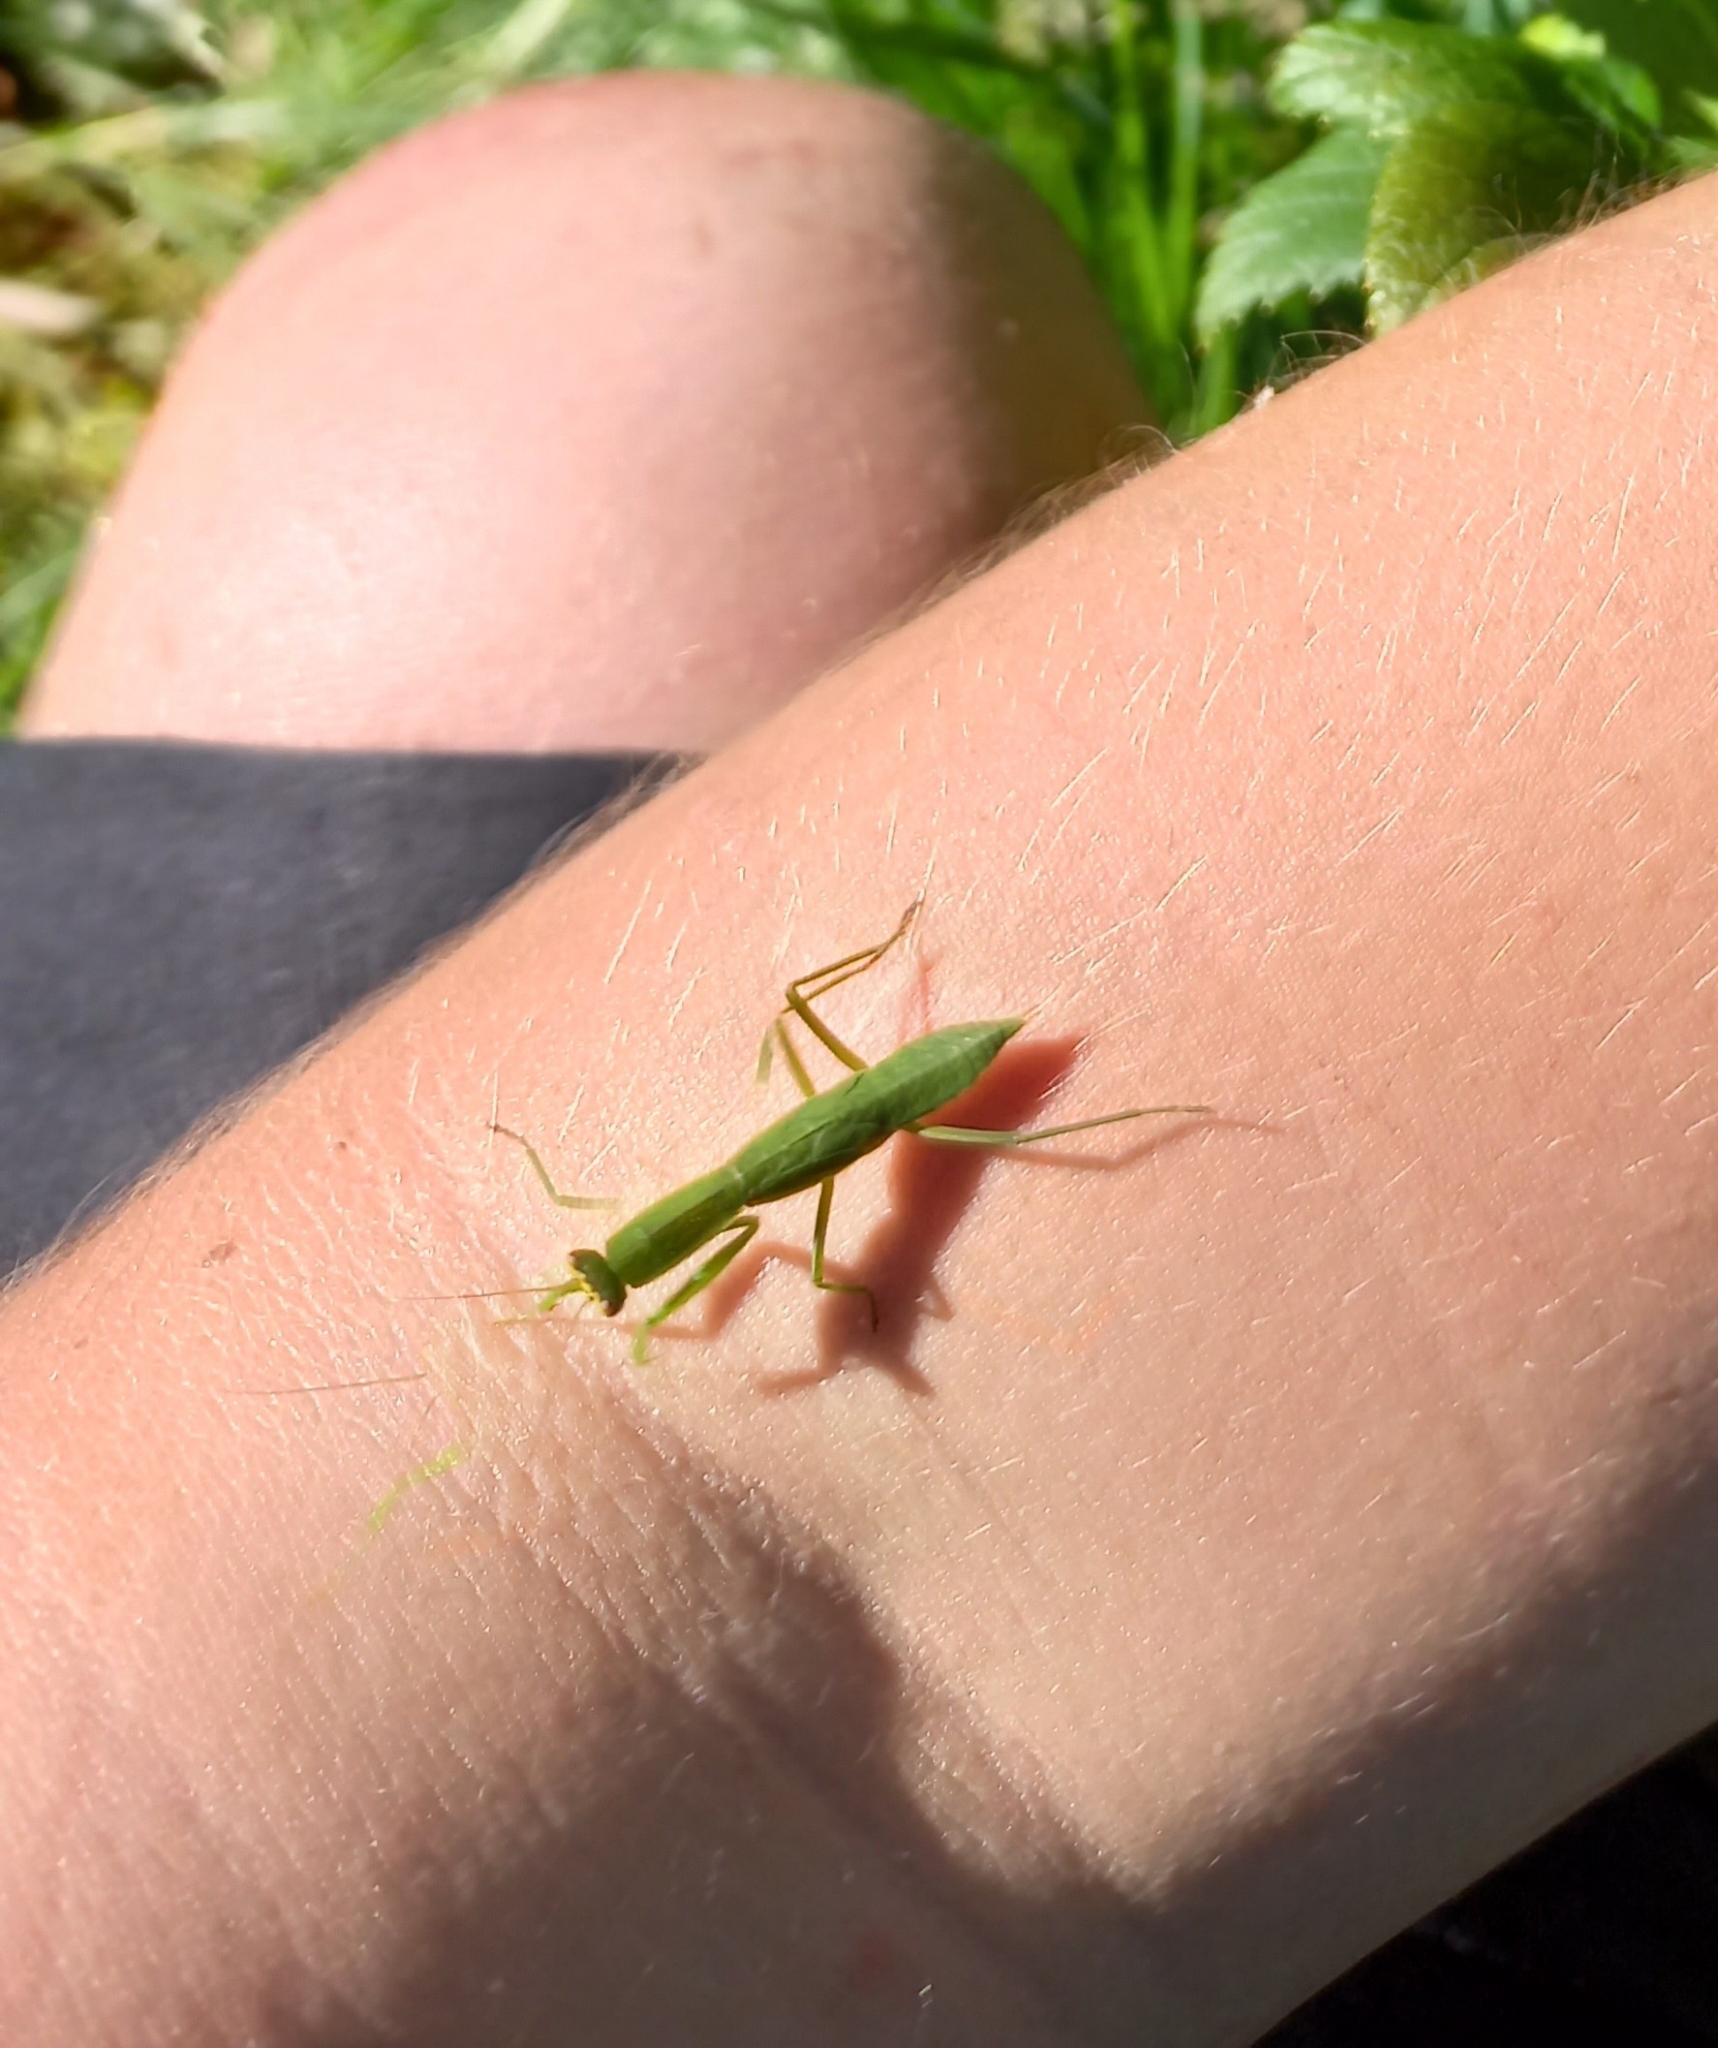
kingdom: Animalia
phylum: Arthropoda
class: Insecta
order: Mantodea
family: Mantidae
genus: Orthodera
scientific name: Orthodera novaezealandiae
